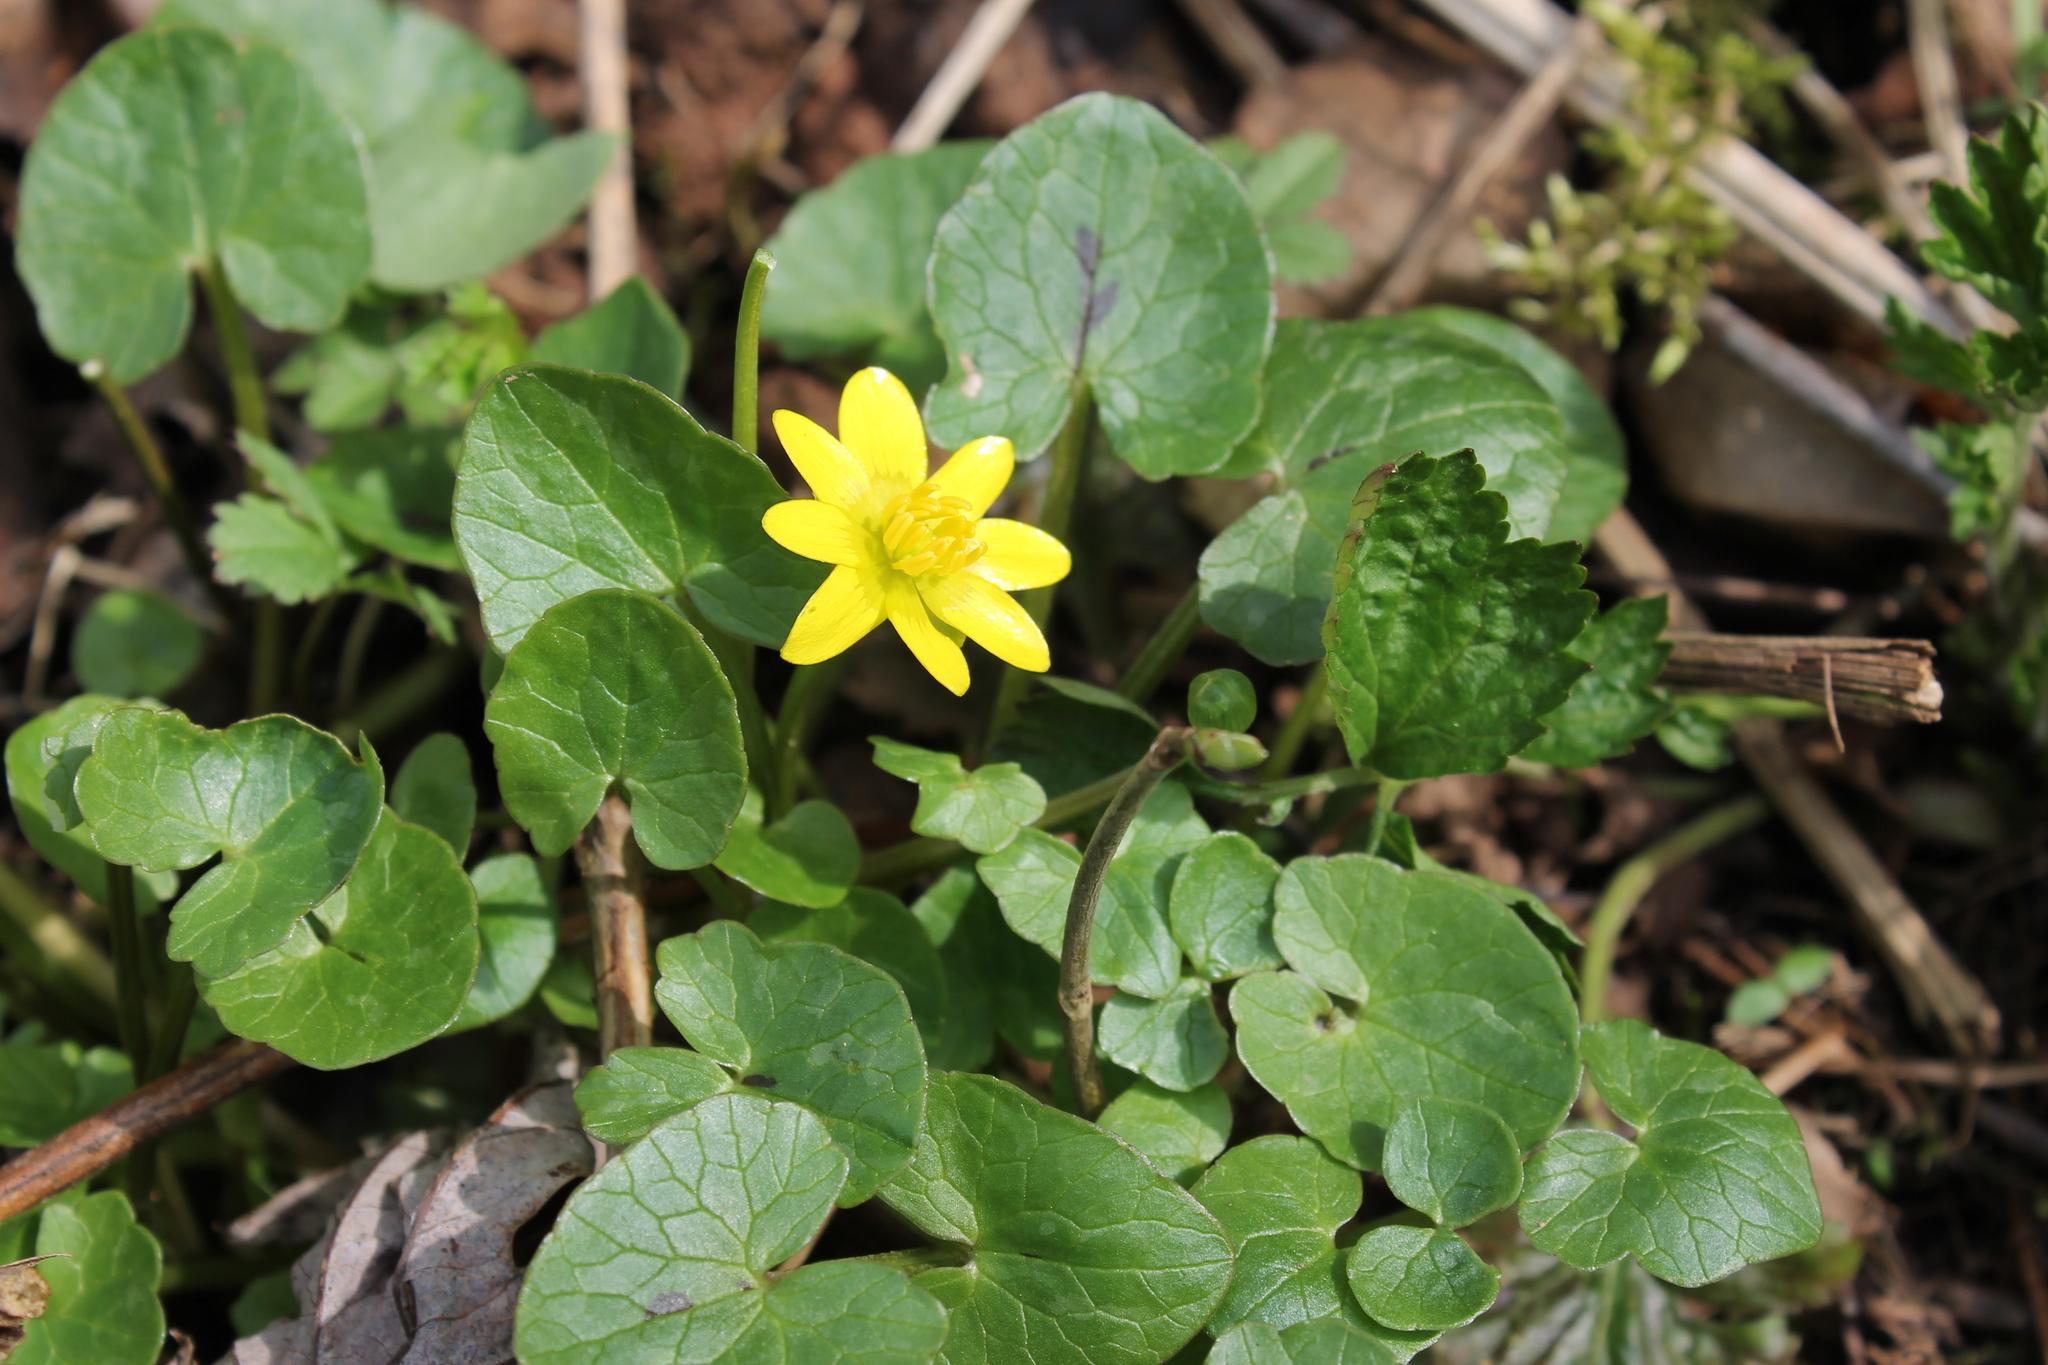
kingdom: Plantae
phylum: Tracheophyta
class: Magnoliopsida
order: Ranunculales
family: Ranunculaceae
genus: Ficaria
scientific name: Ficaria verna
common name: Lesser celandine
